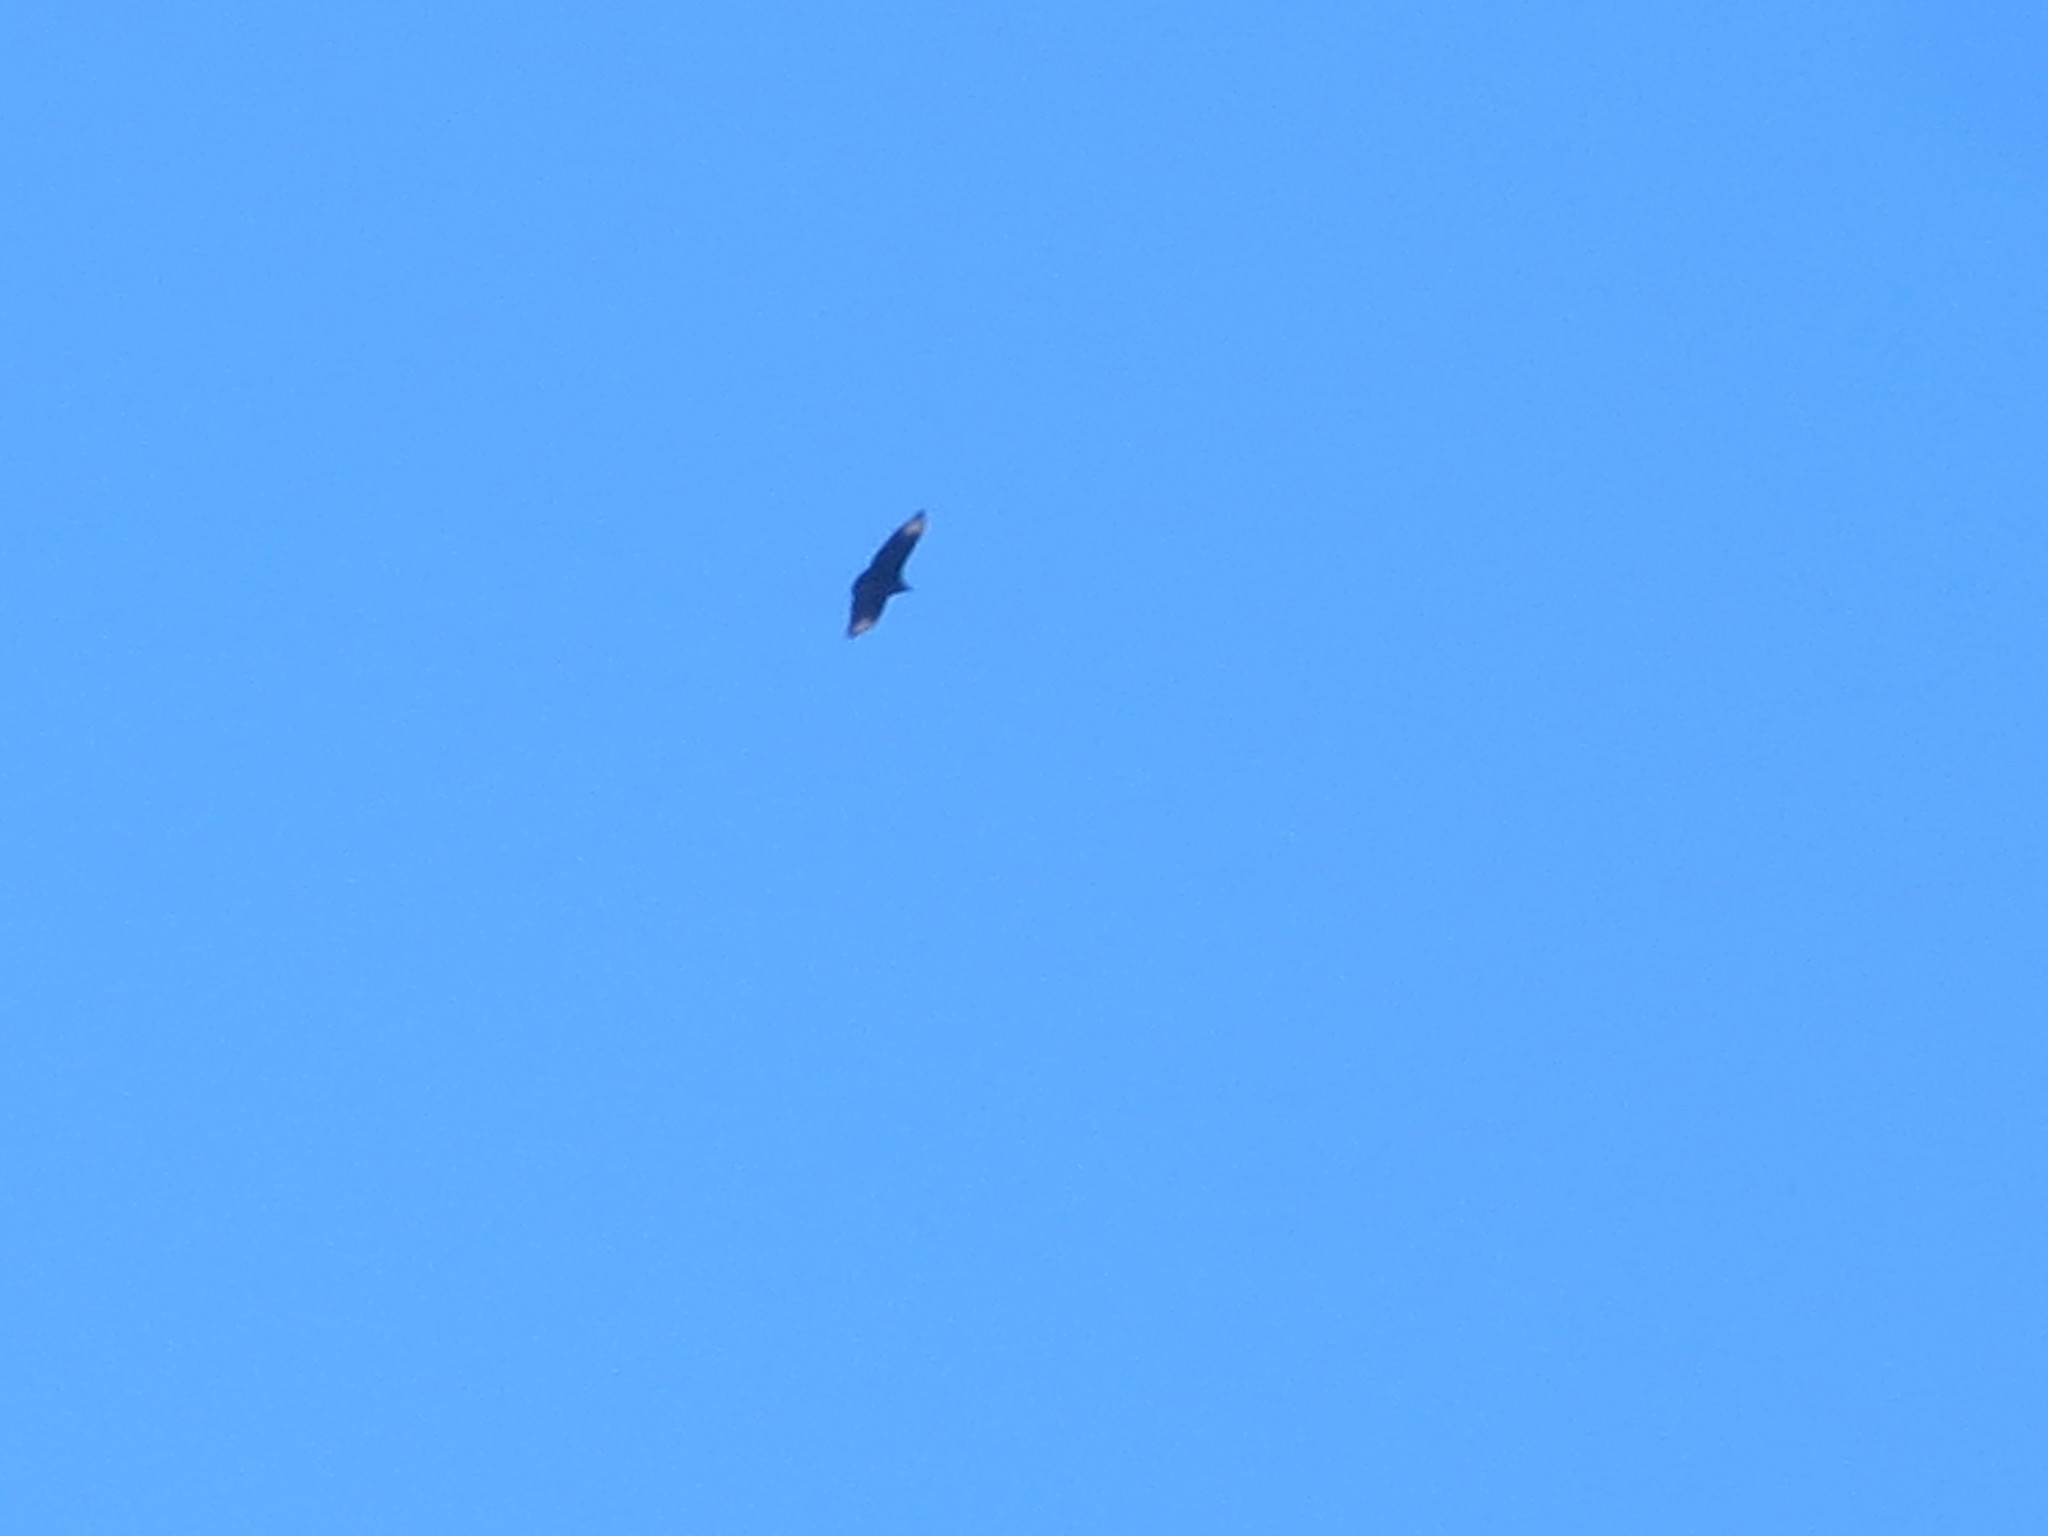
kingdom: Animalia
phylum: Chordata
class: Aves
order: Accipitriformes
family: Cathartidae
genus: Coragyps
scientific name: Coragyps atratus
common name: Black vulture
